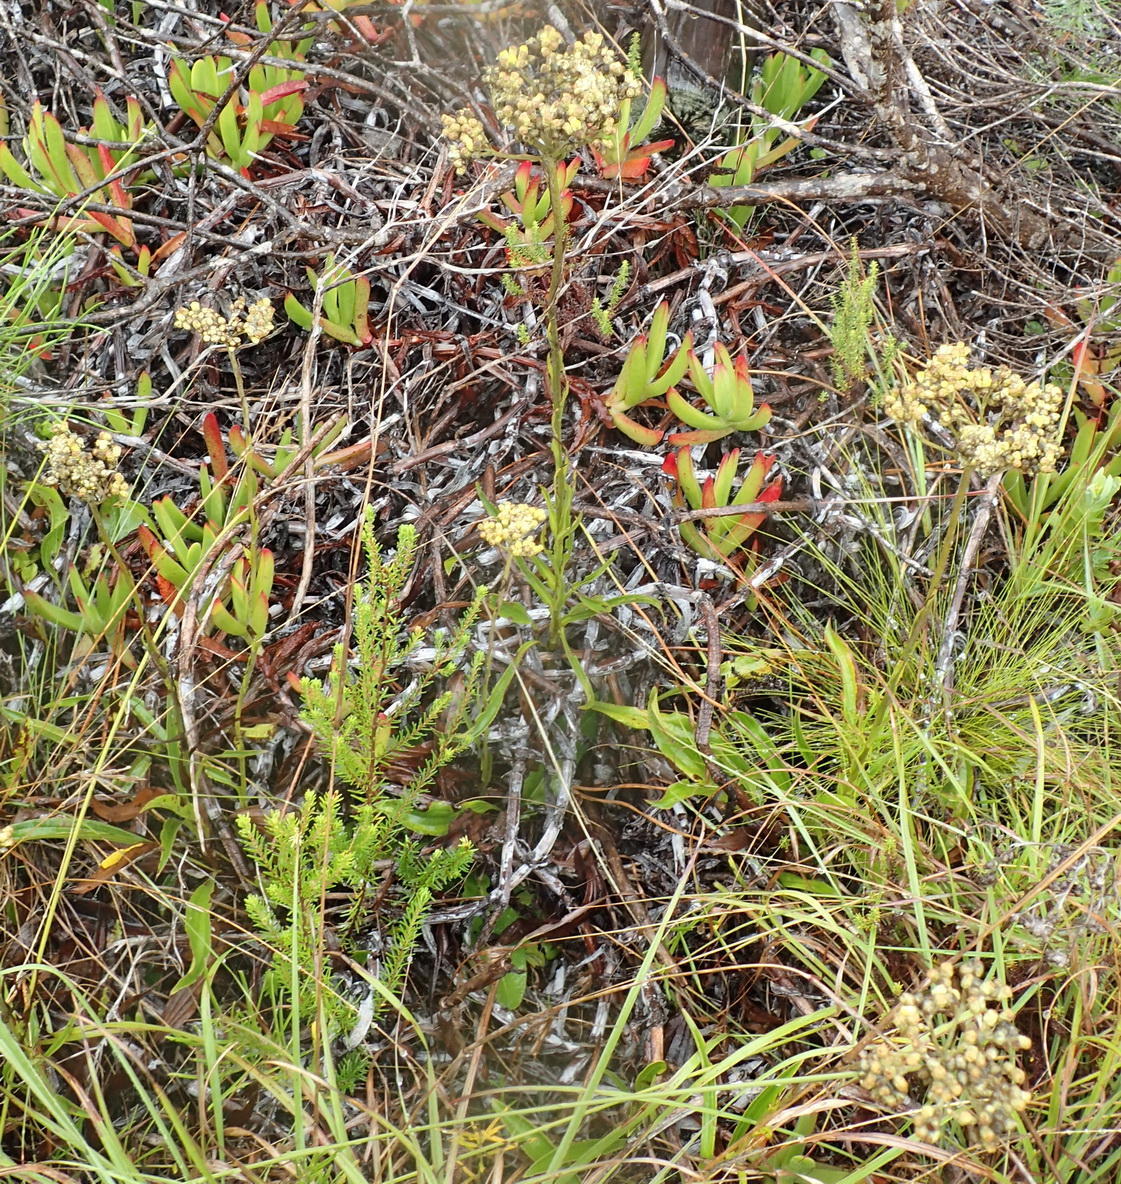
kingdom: Plantae
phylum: Tracheophyta
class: Magnoliopsida
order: Asterales
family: Asteraceae
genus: Helichrysum
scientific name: Helichrysum nudifolium
